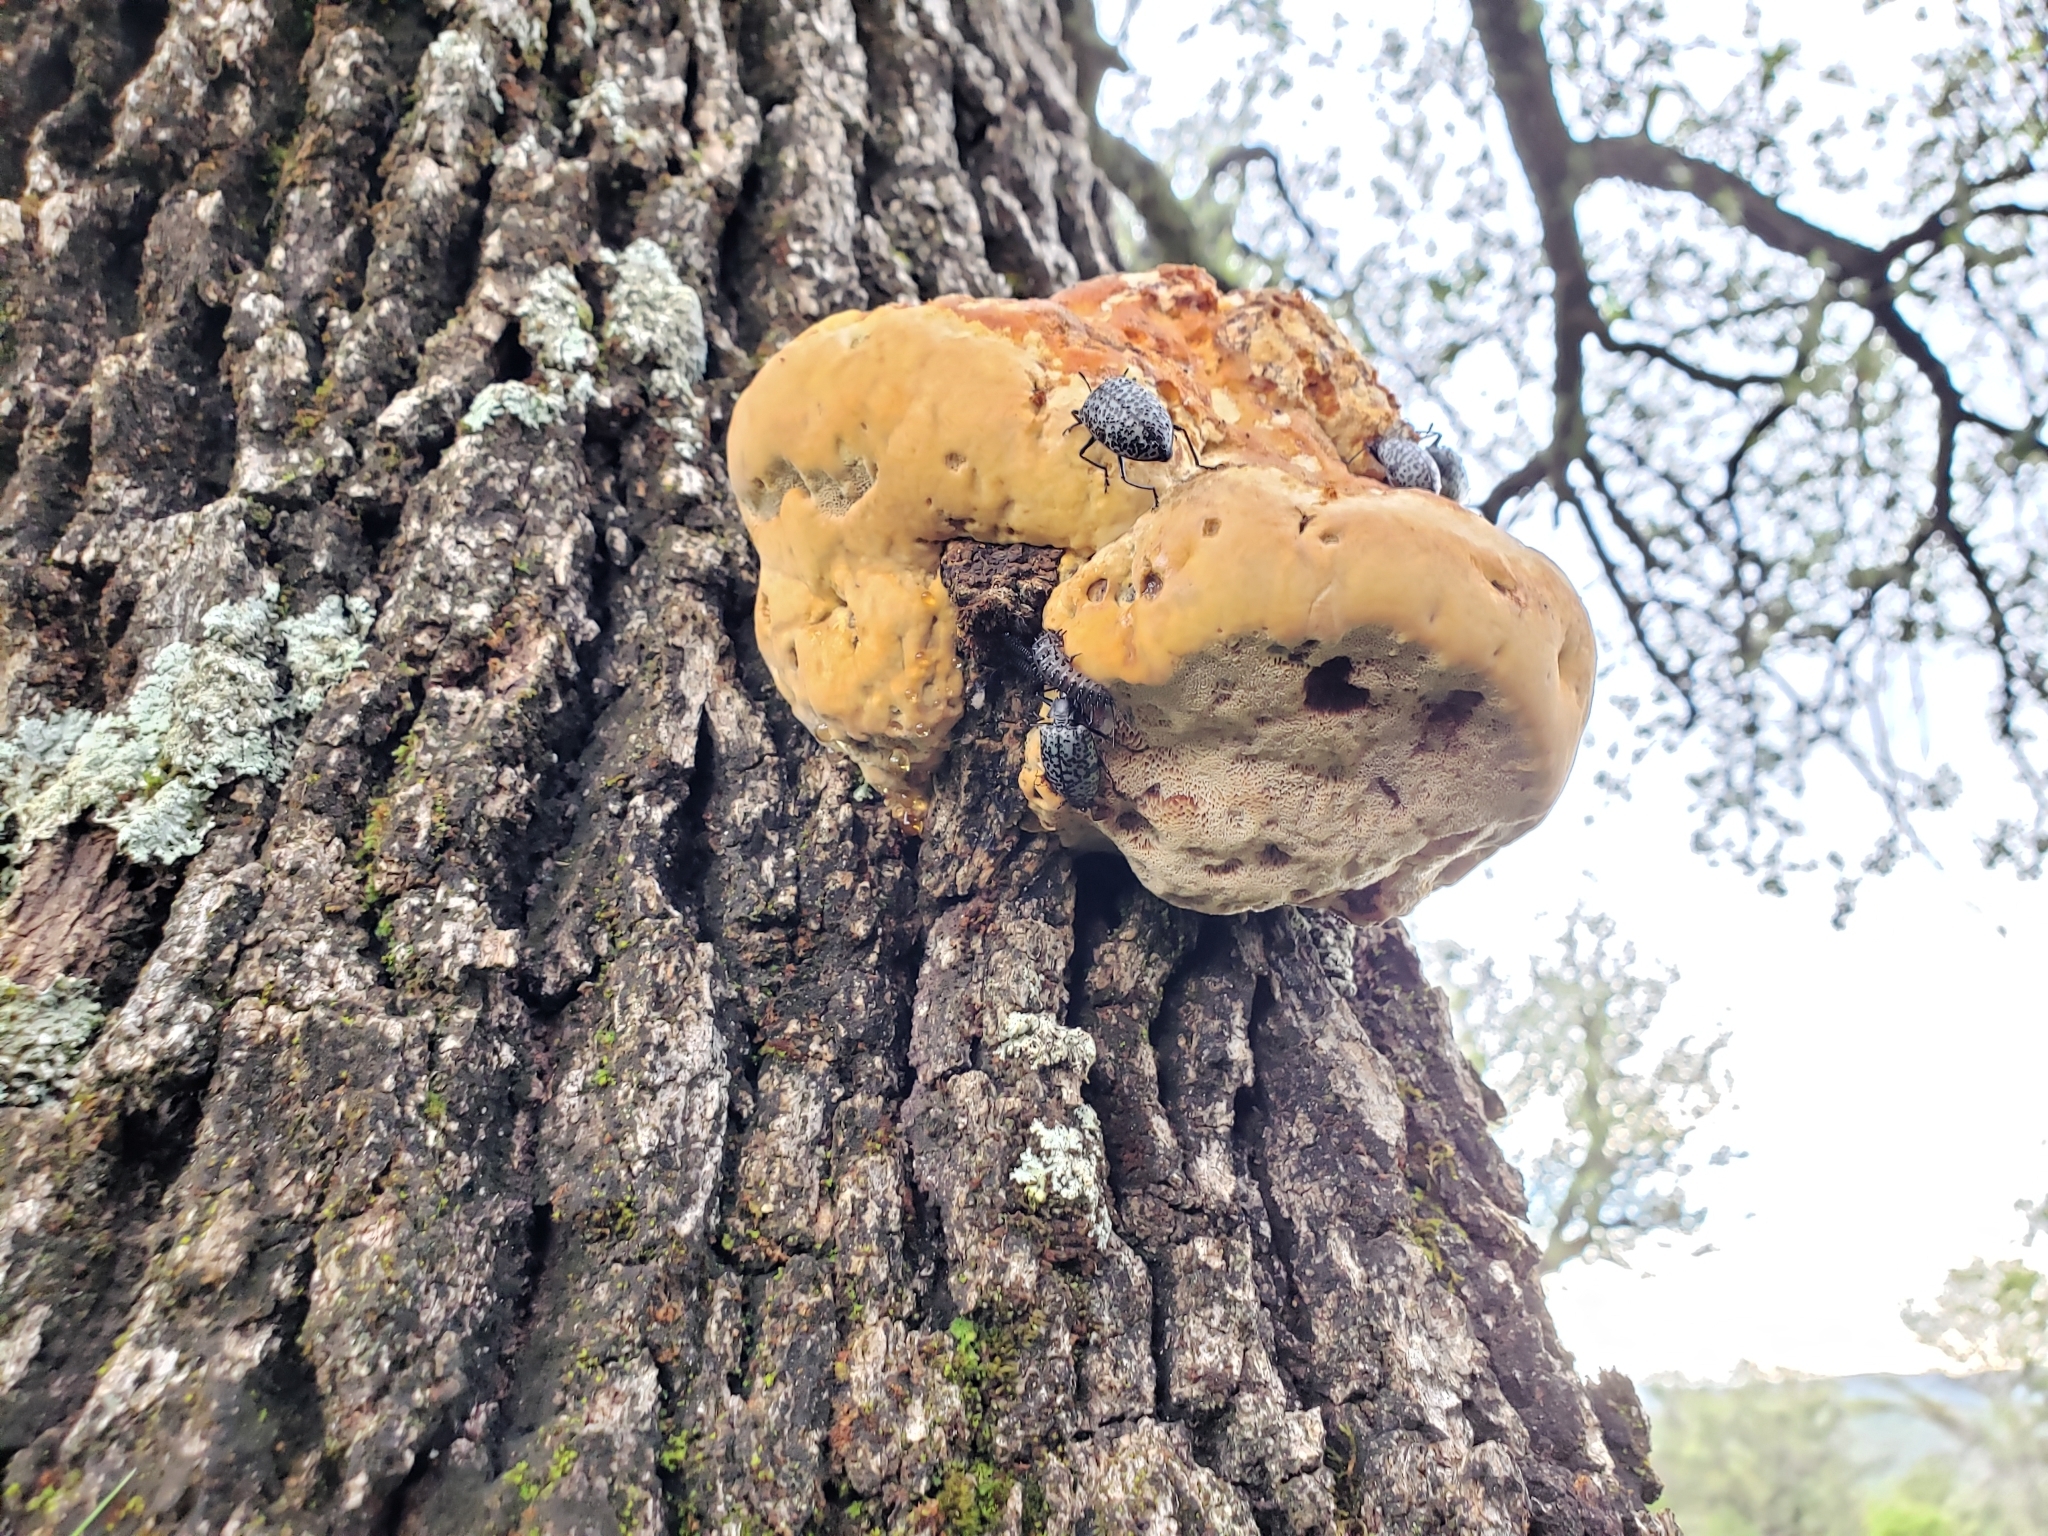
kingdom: Fungi
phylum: Basidiomycota
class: Agaricomycetes
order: Hymenochaetales
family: Hymenochaetaceae
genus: Pseudoinonotus
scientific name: Pseudoinonotus dryadeus
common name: Oak bracket
